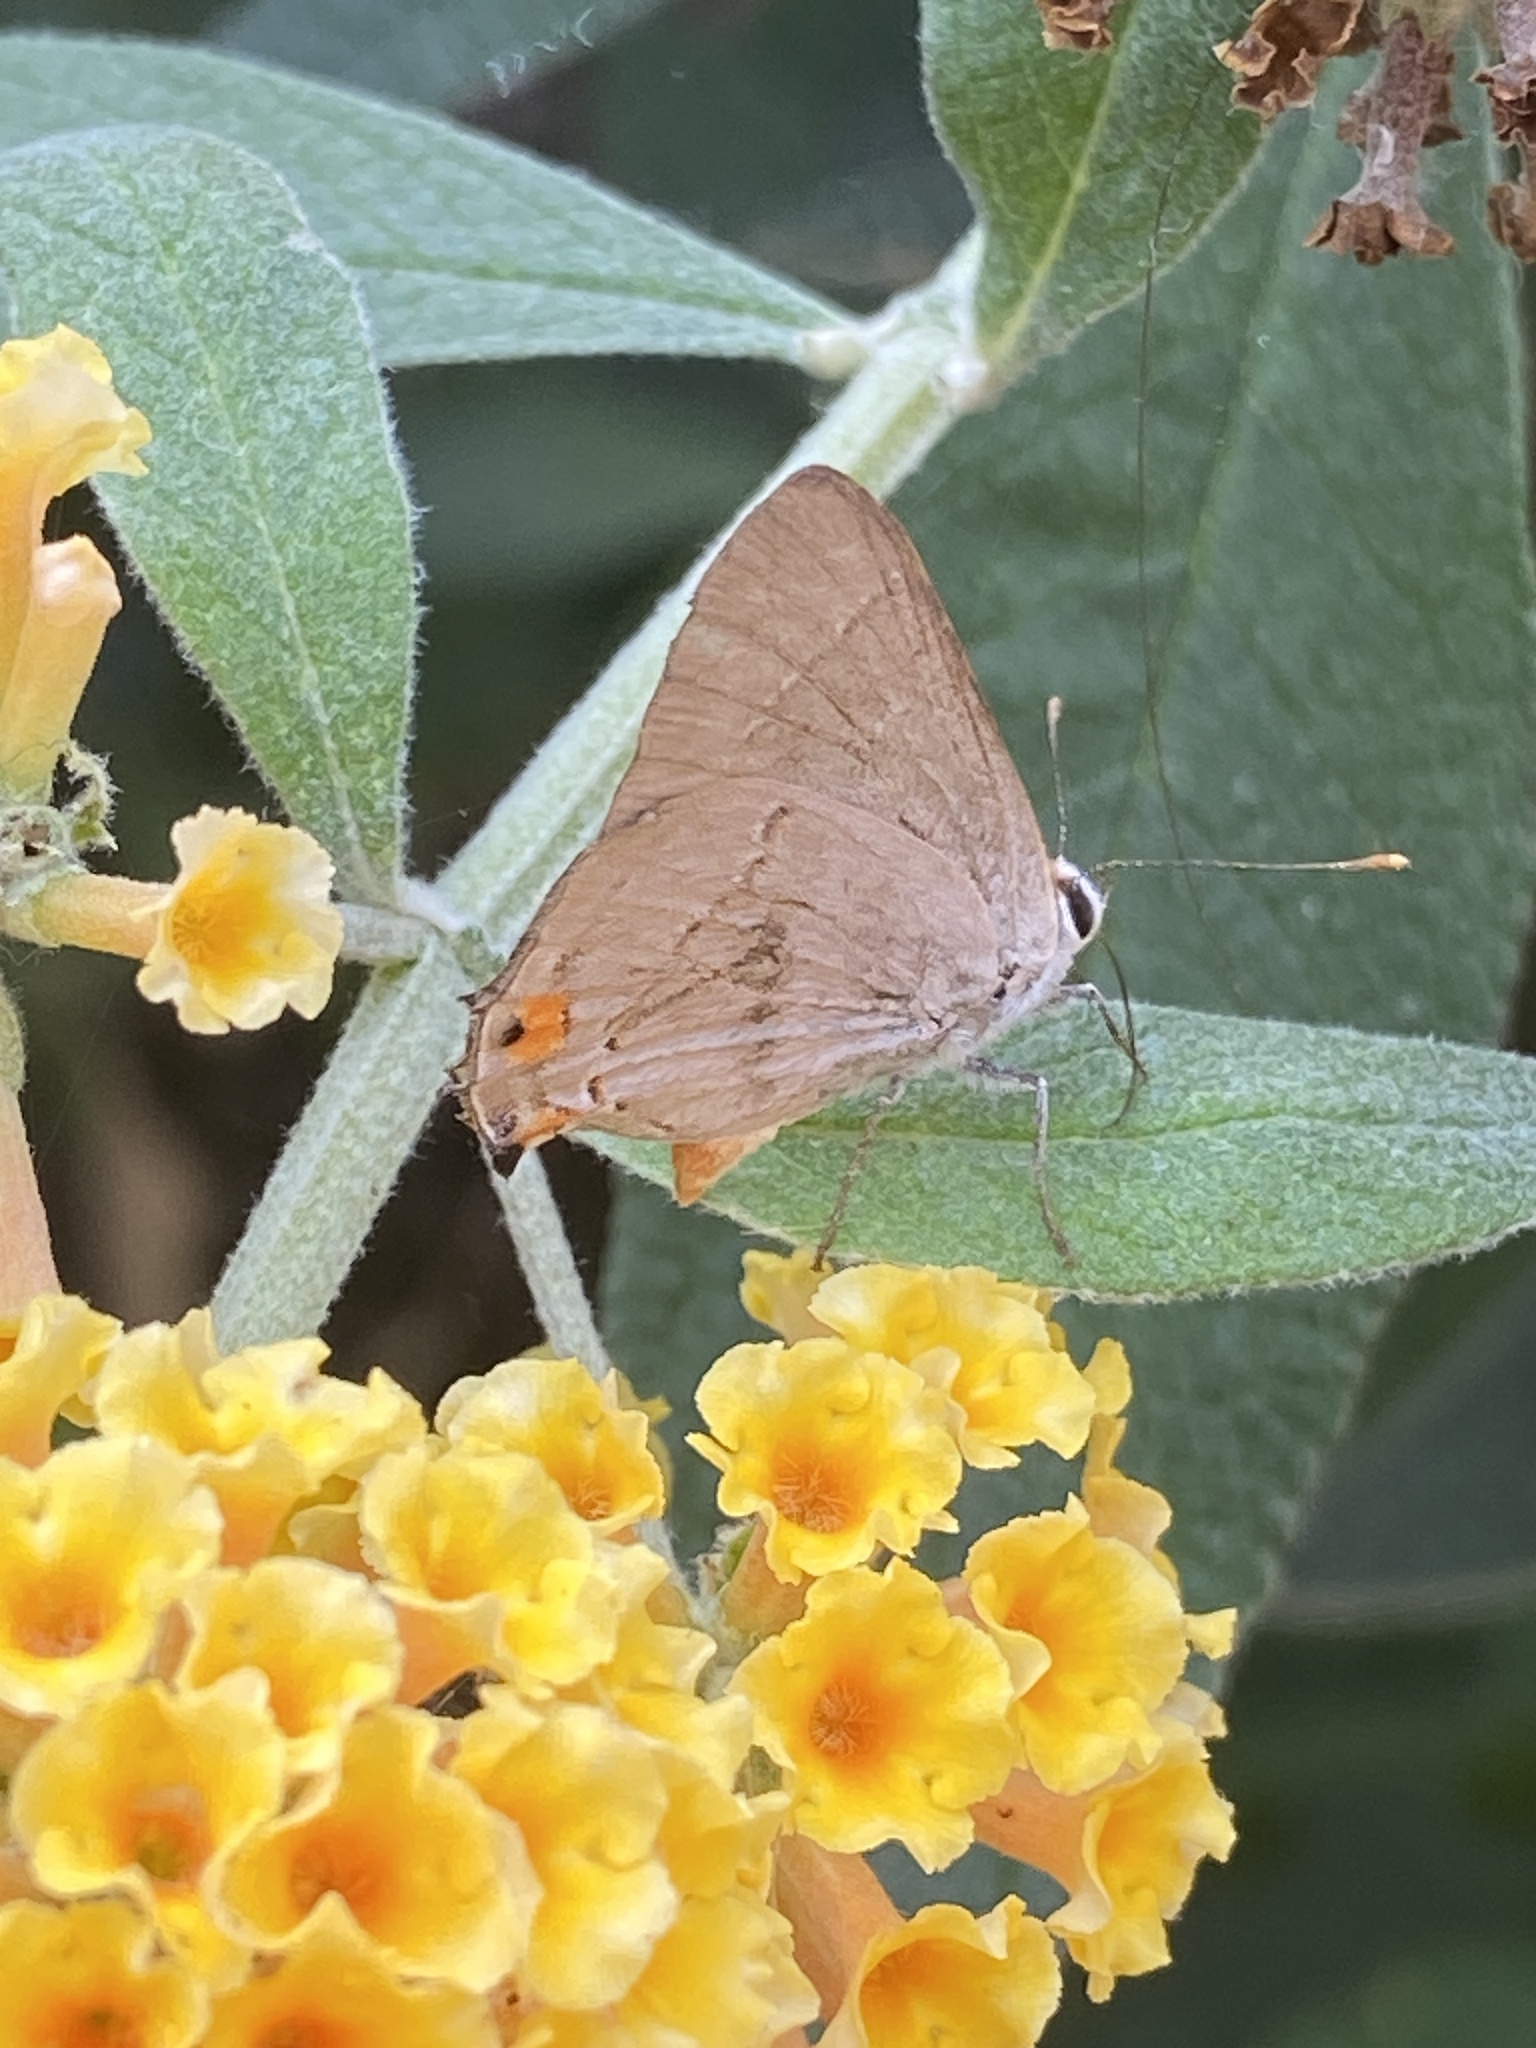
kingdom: Animalia
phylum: Arthropoda
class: Insecta
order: Lepidoptera
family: Lycaenidae
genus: Strymon
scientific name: Strymon melinus
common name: Gray hairstreak
